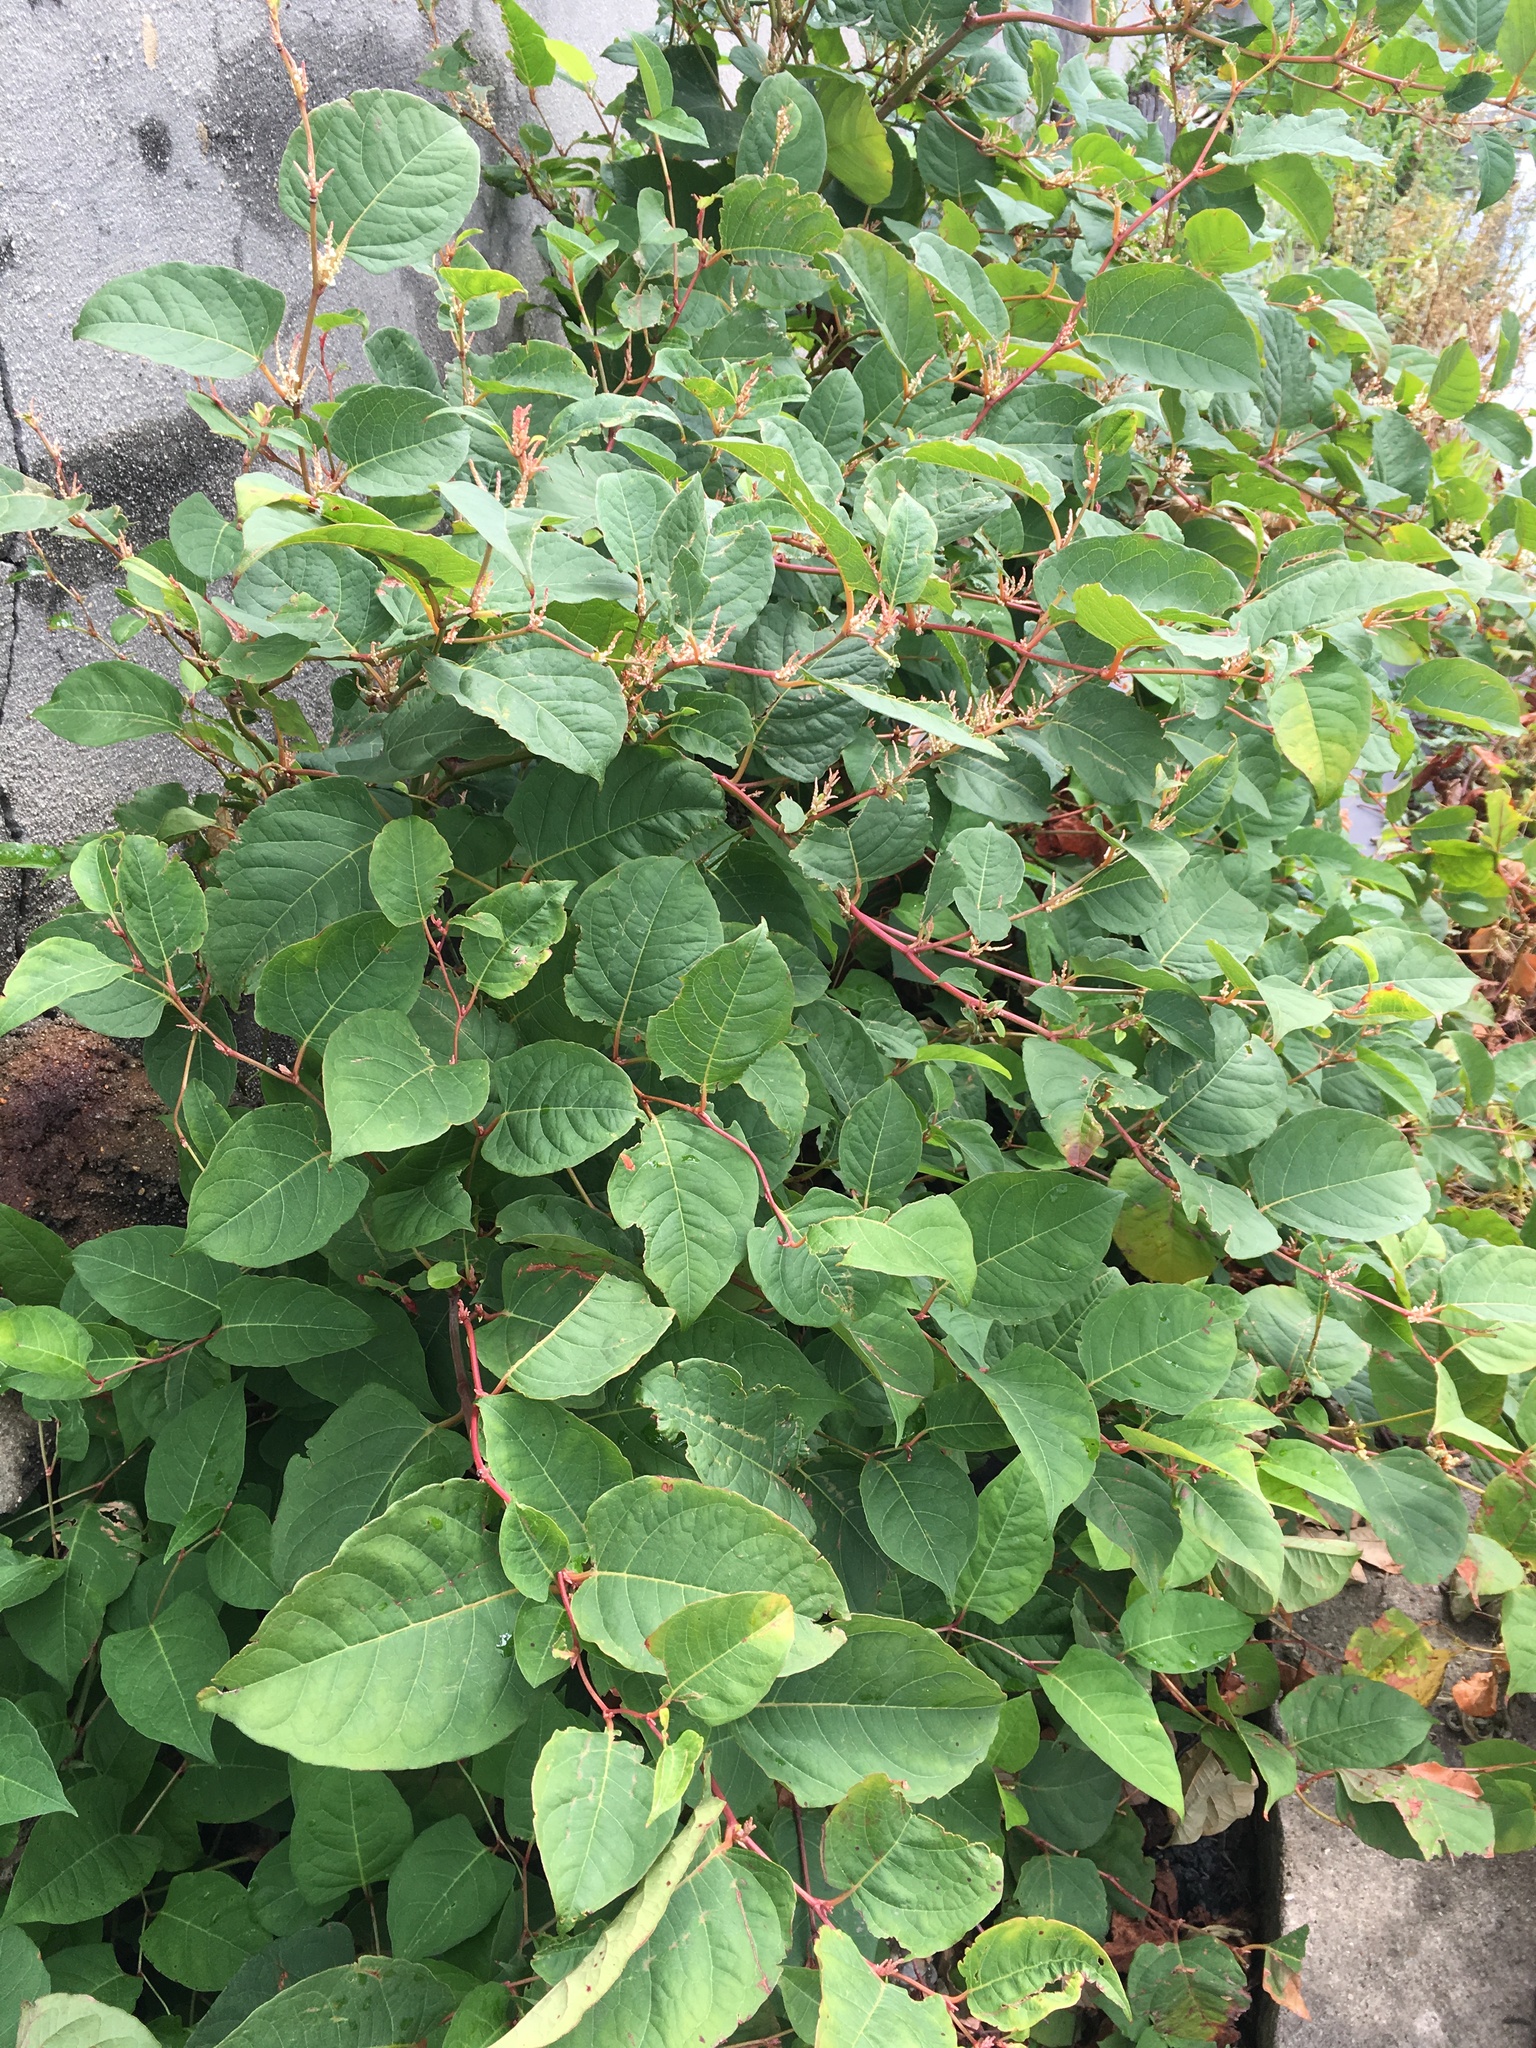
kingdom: Plantae
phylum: Tracheophyta
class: Magnoliopsida
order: Caryophyllales
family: Polygonaceae
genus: Reynoutria
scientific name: Reynoutria japonica
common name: Japanese knotweed
